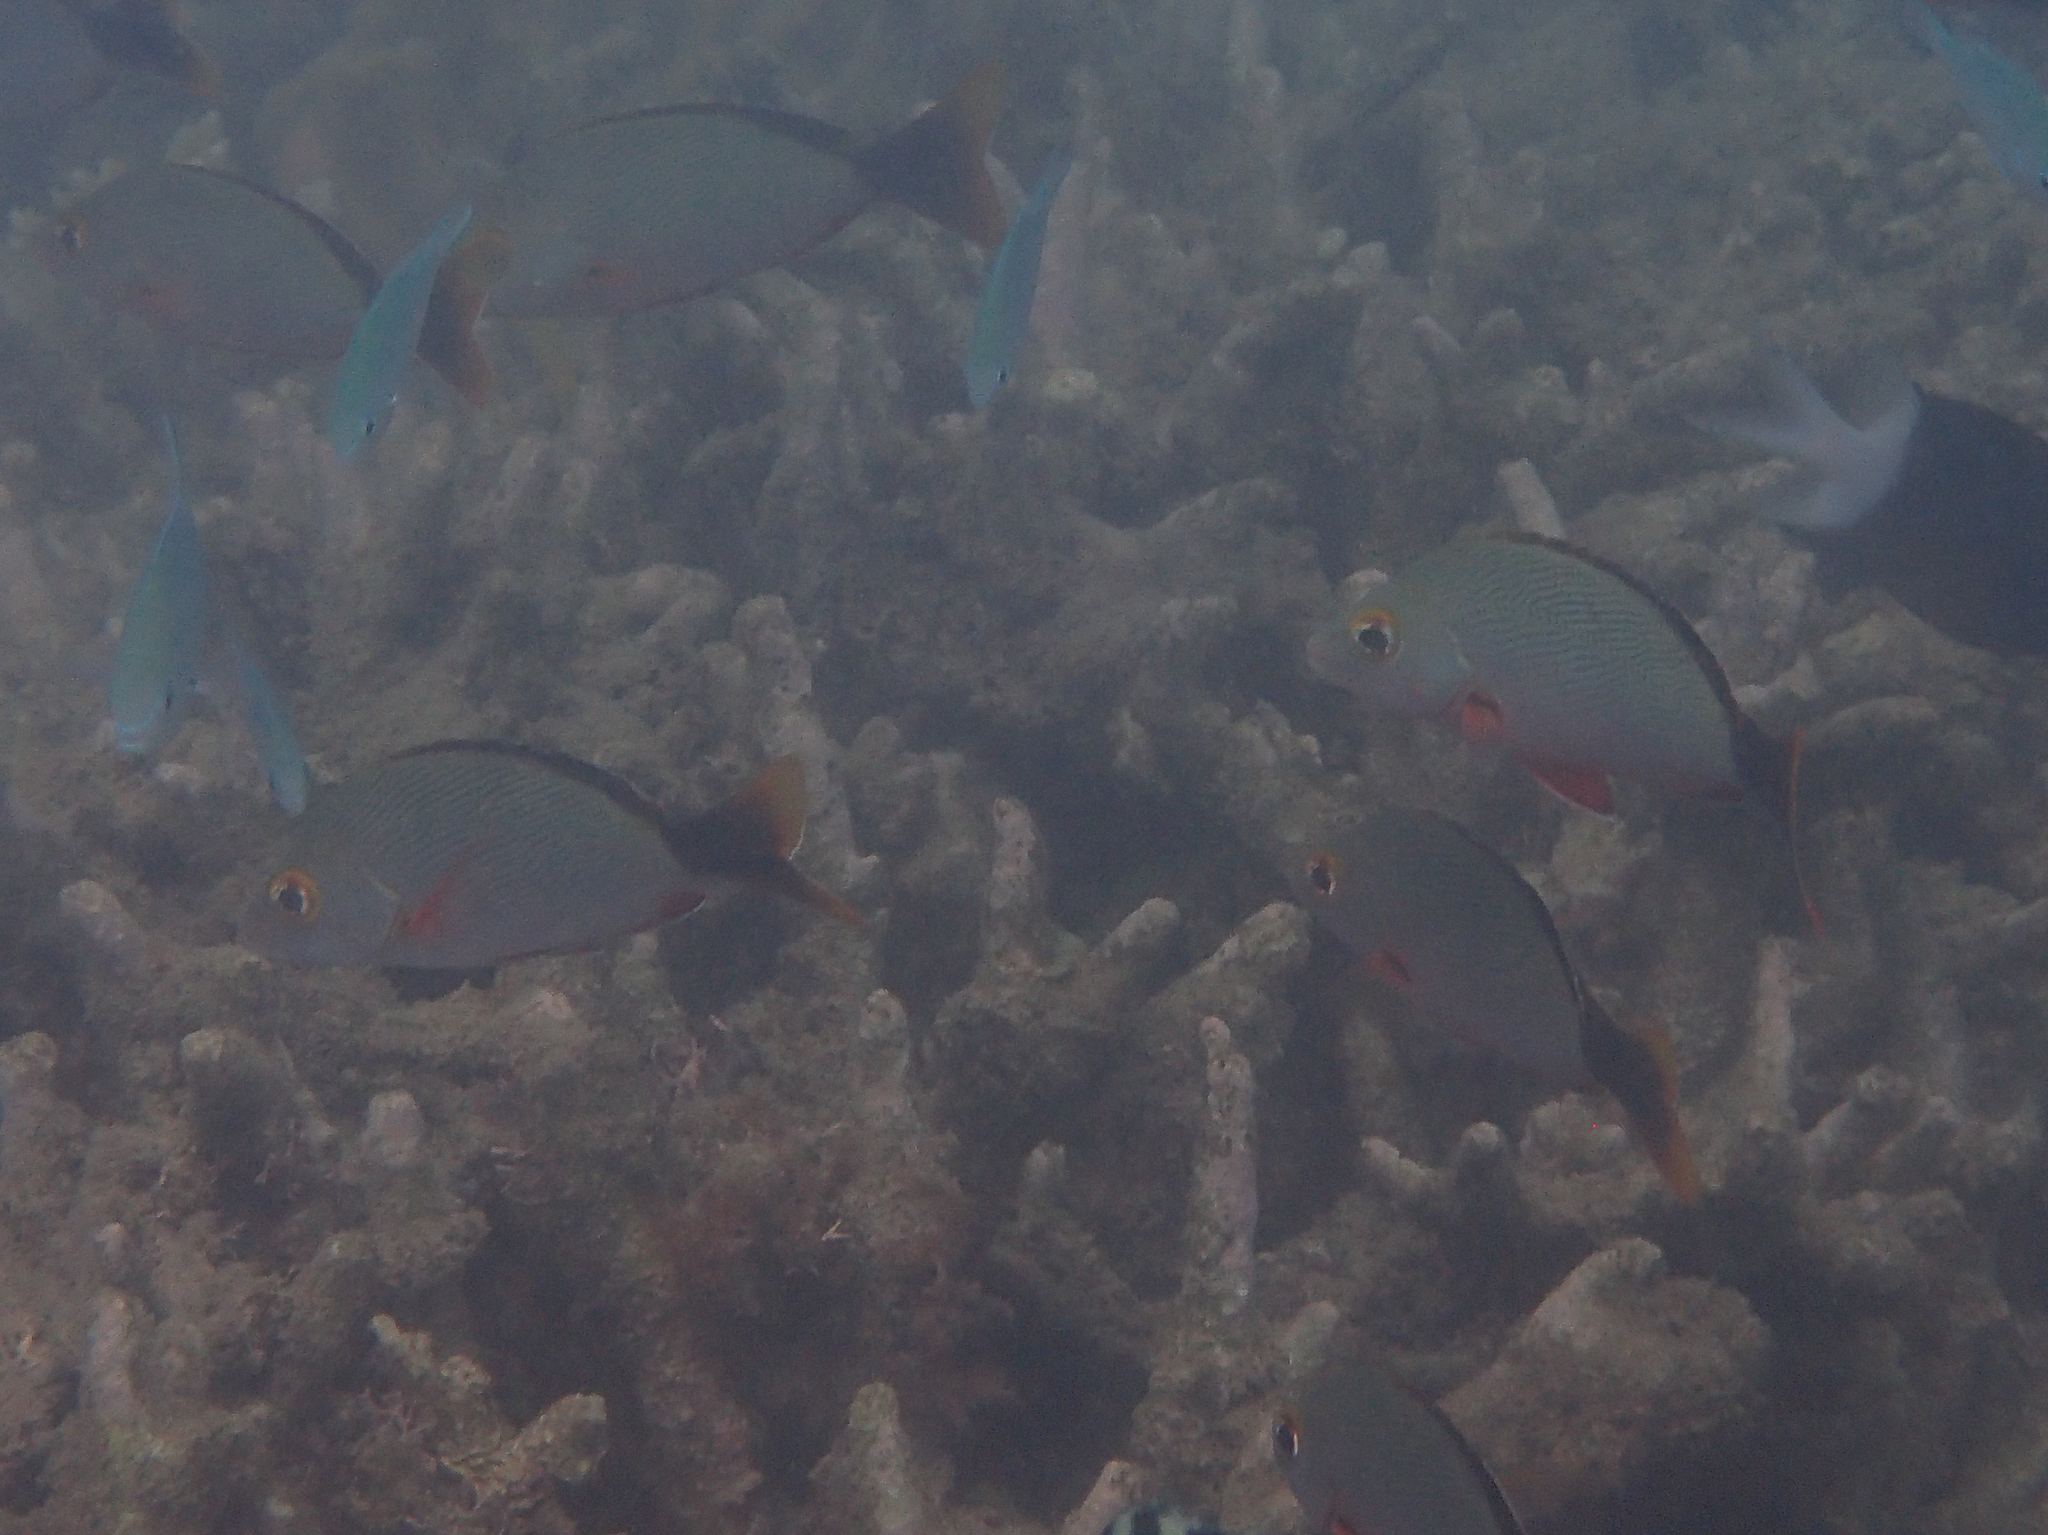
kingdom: Animalia
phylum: Chordata
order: Perciformes
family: Lutjanidae
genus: Lutjanus
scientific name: Lutjanus gibbus
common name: Humpback snapper
